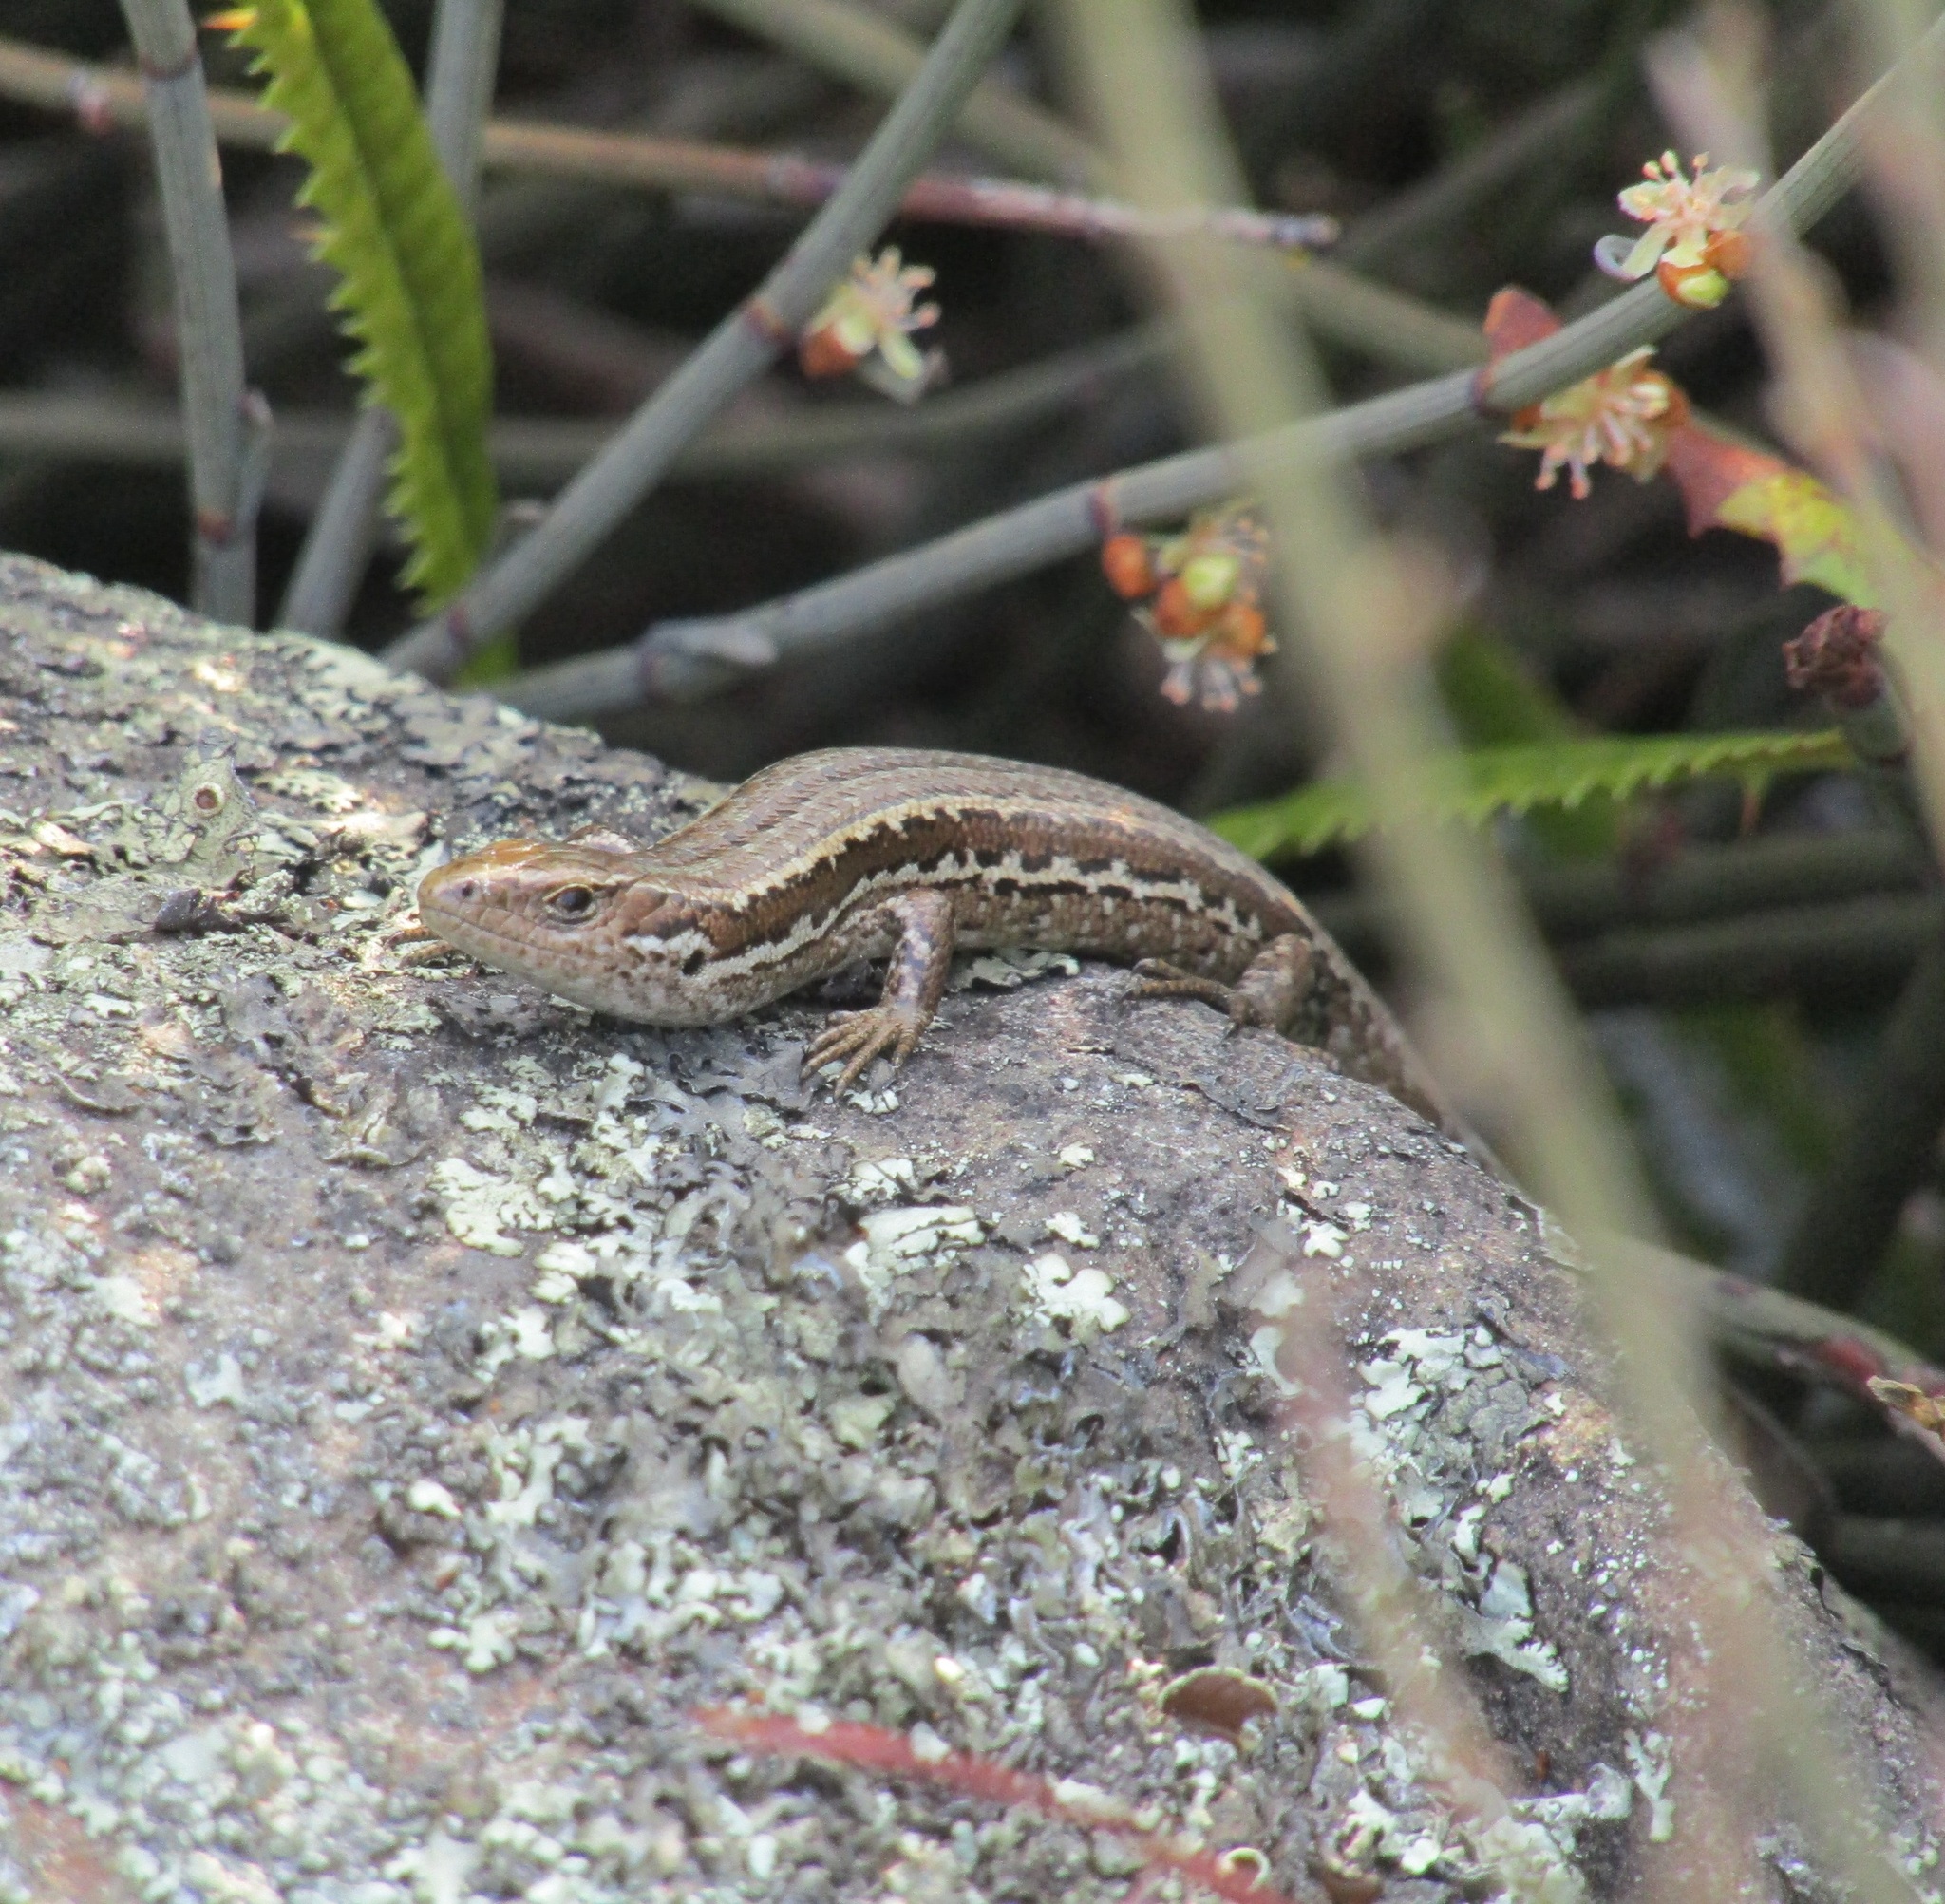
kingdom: Animalia
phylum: Chordata
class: Squamata
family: Scincidae
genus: Oligosoma
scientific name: Oligosoma polychroma
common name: Common new zealand skink
